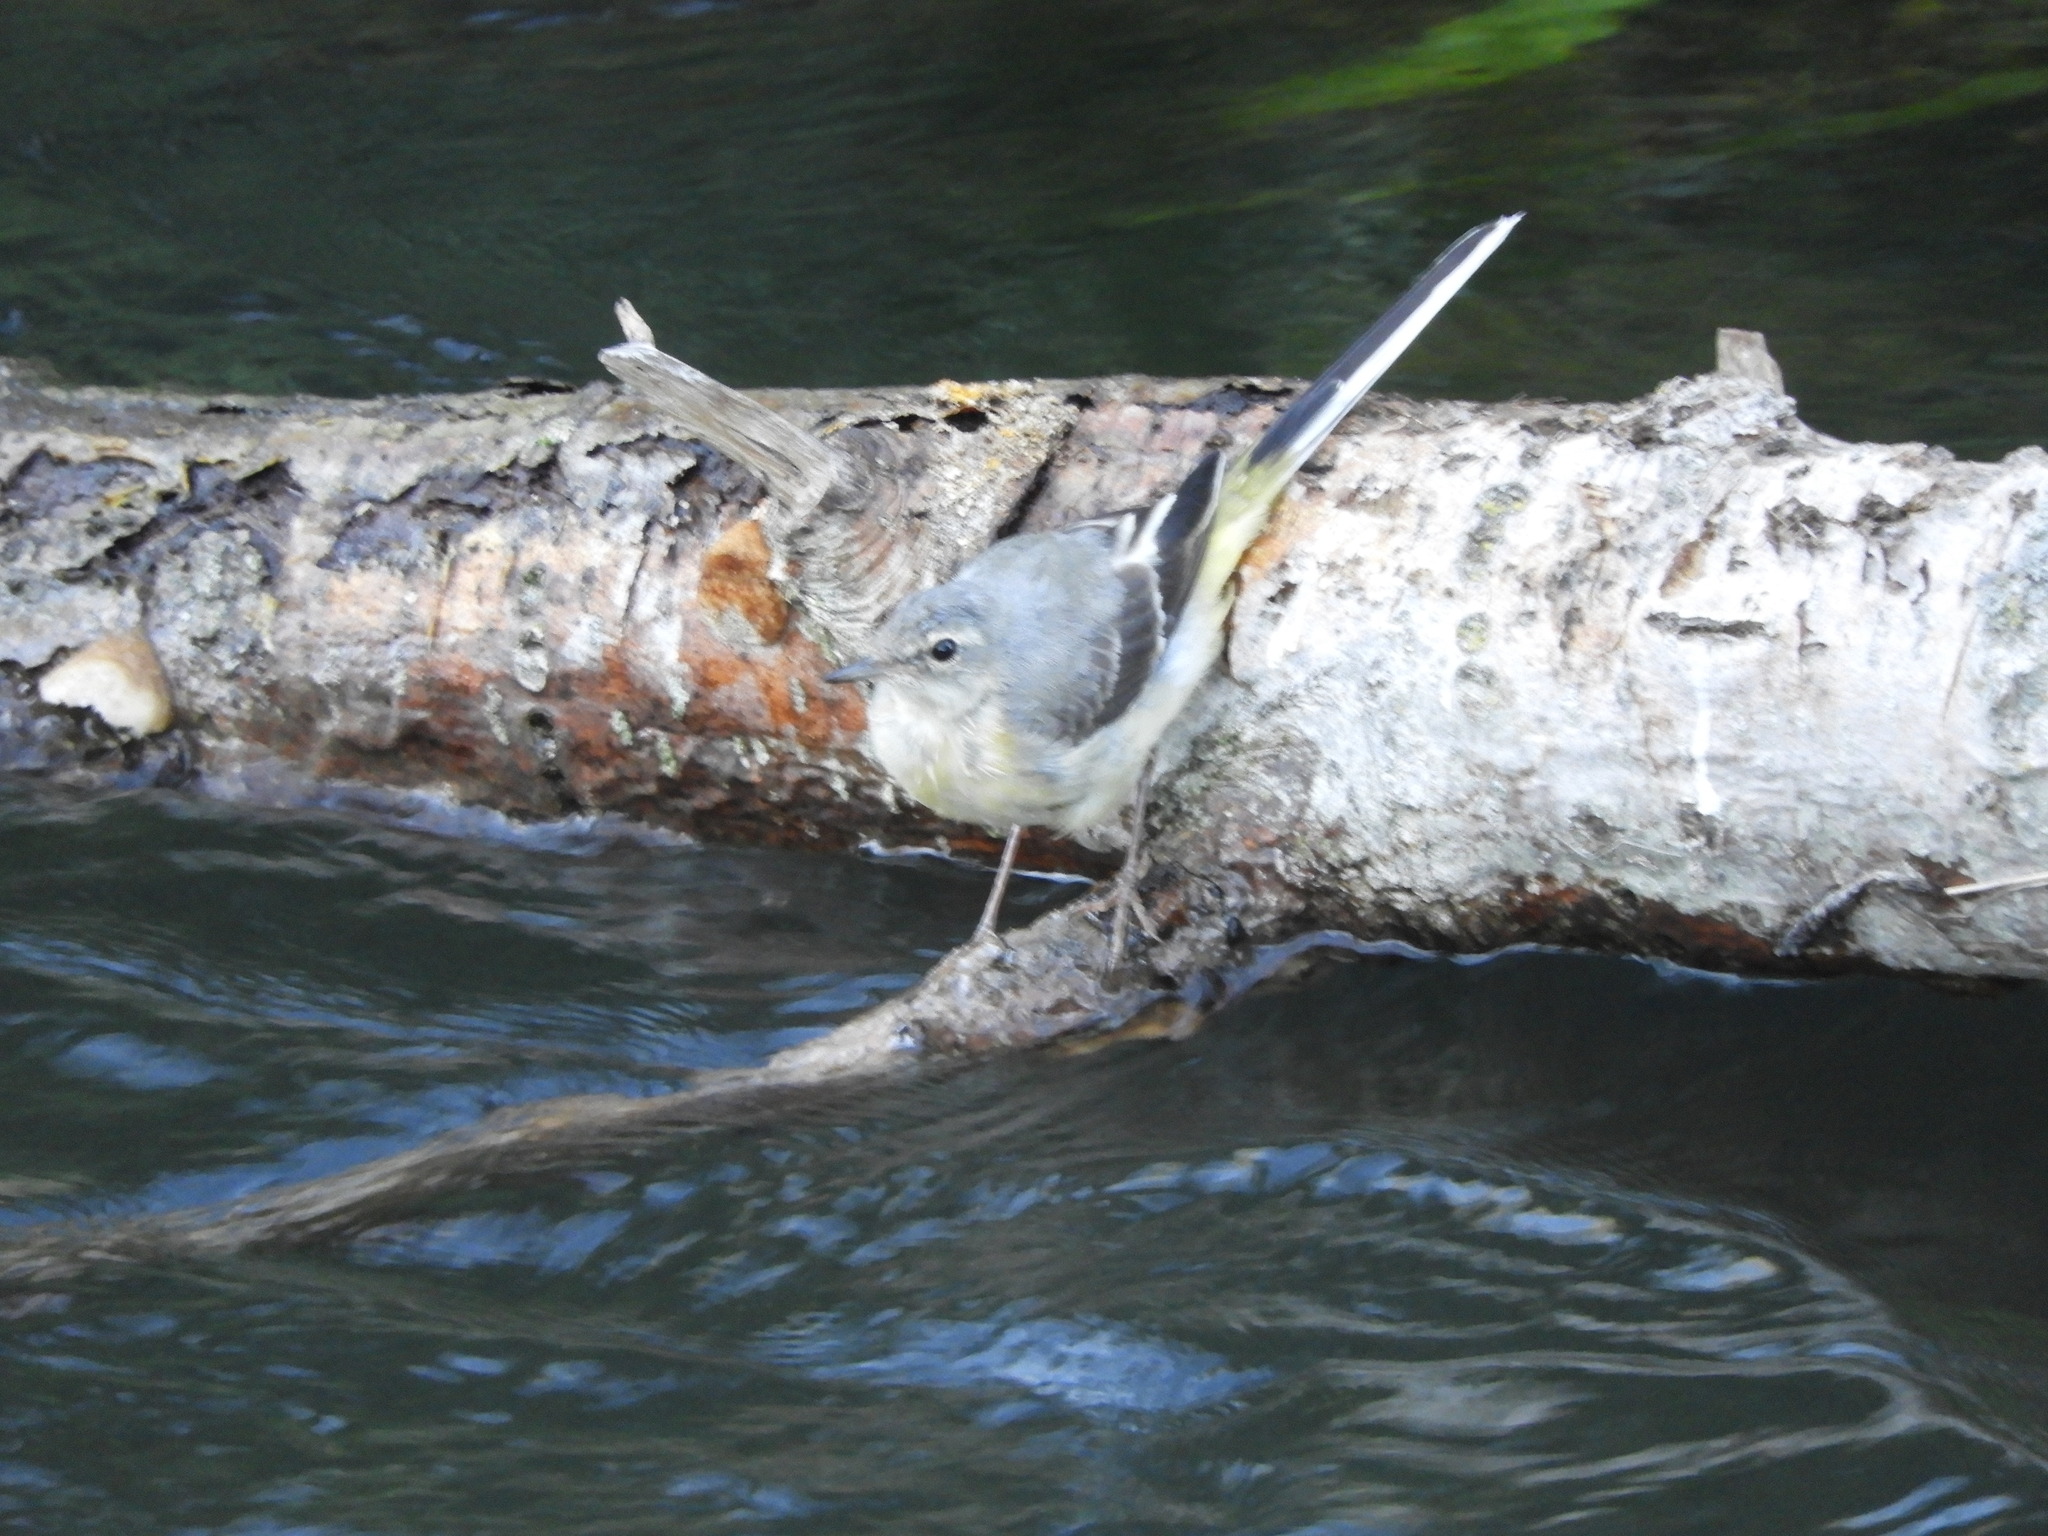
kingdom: Animalia
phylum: Chordata
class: Aves
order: Passeriformes
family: Motacillidae
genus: Motacilla
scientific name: Motacilla cinerea
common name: Grey wagtail
